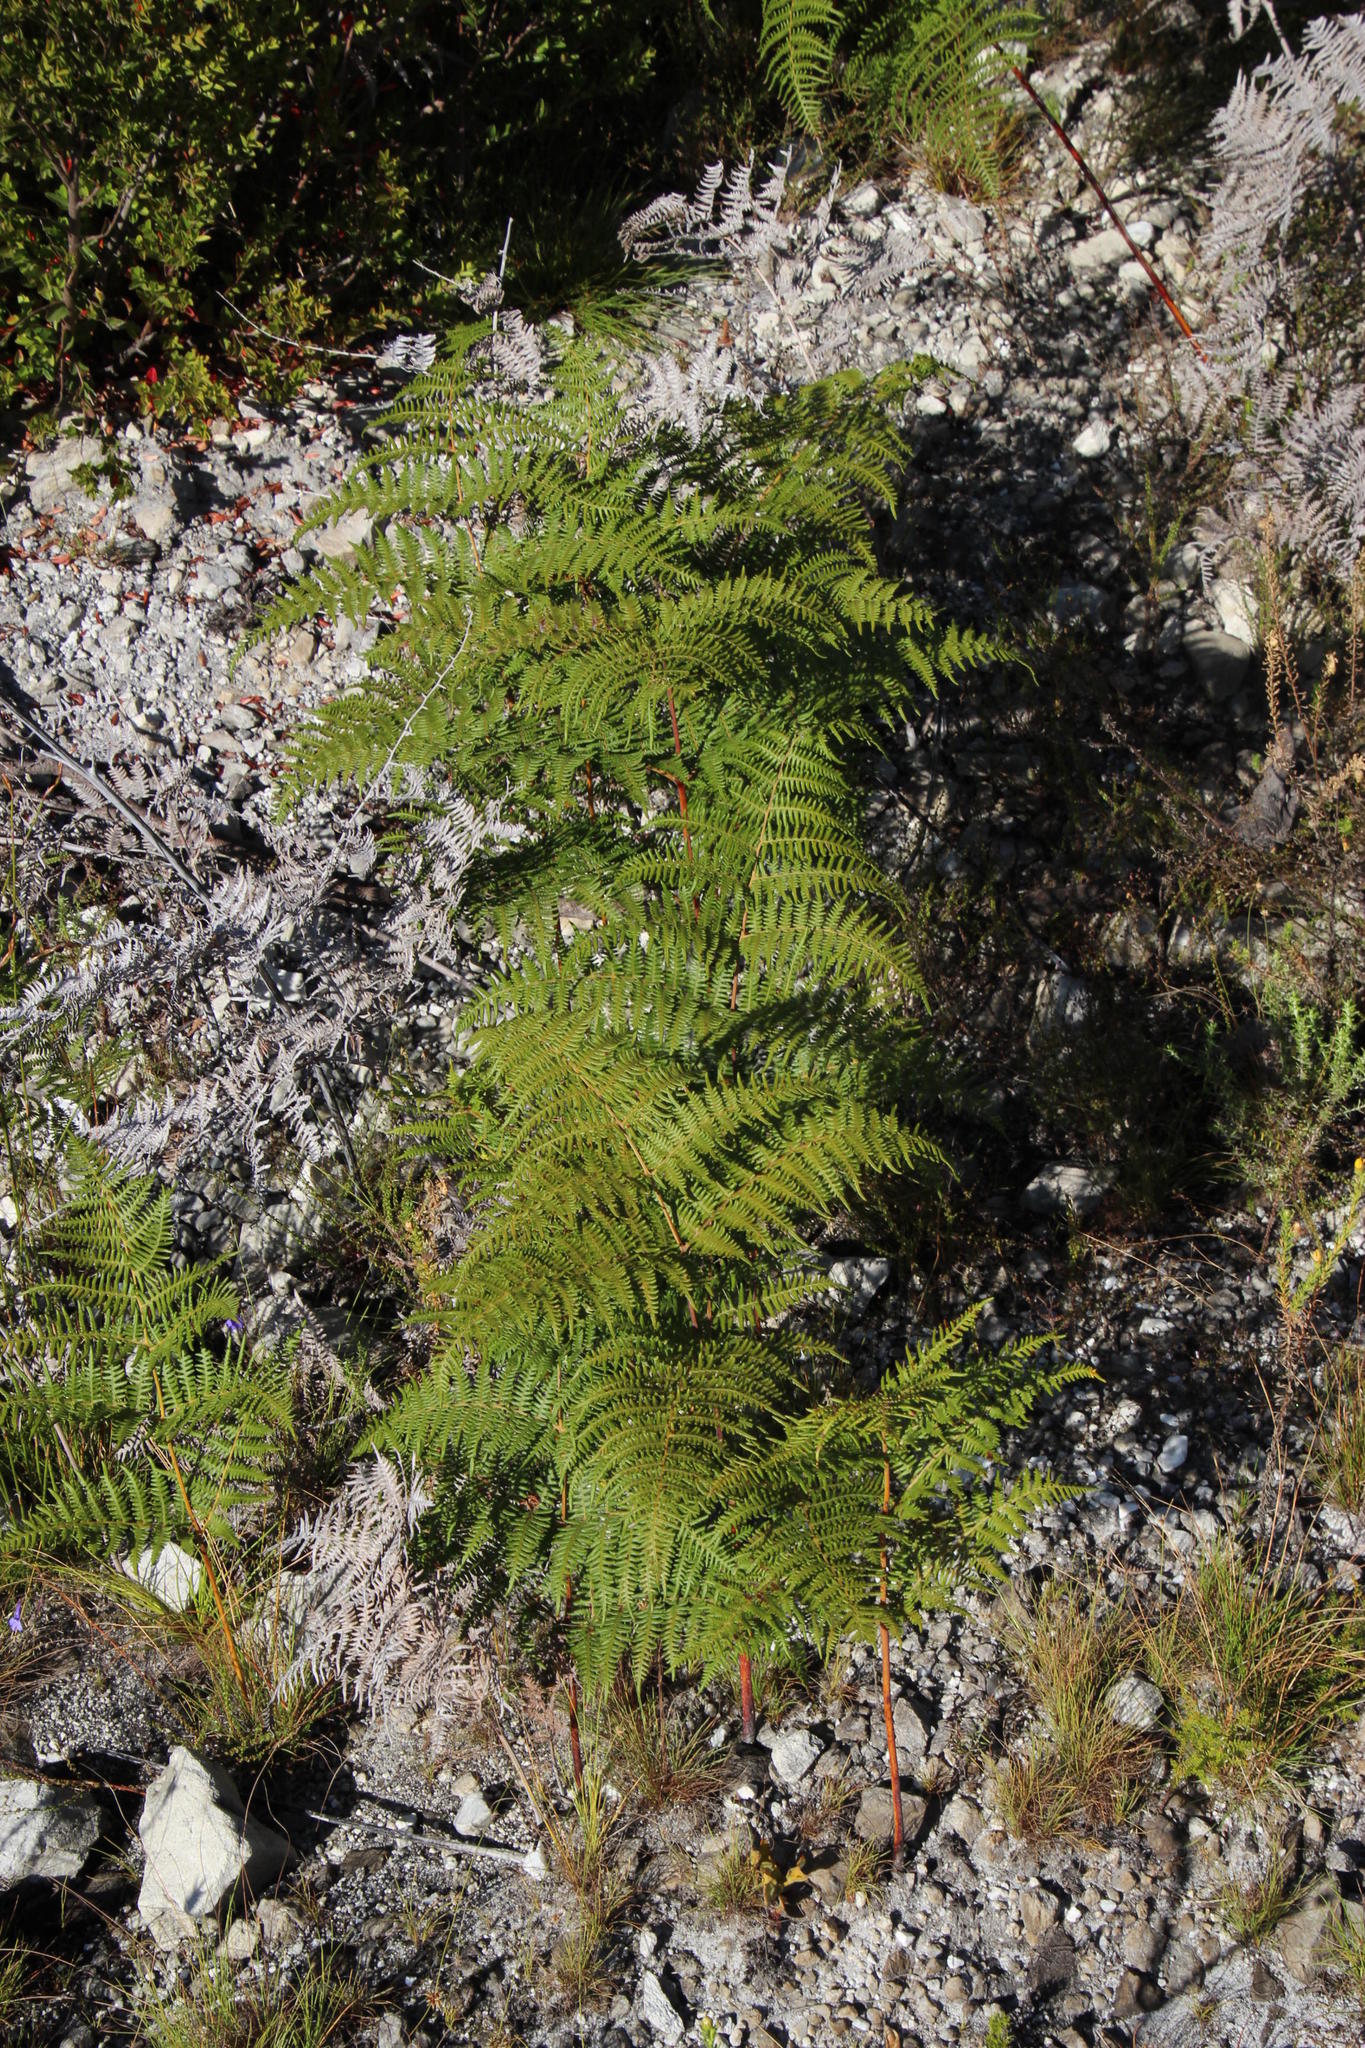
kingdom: Plantae
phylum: Tracheophyta
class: Polypodiopsida
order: Polypodiales
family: Dennstaedtiaceae
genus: Pteridium
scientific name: Pteridium aquilinum
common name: Bracken
